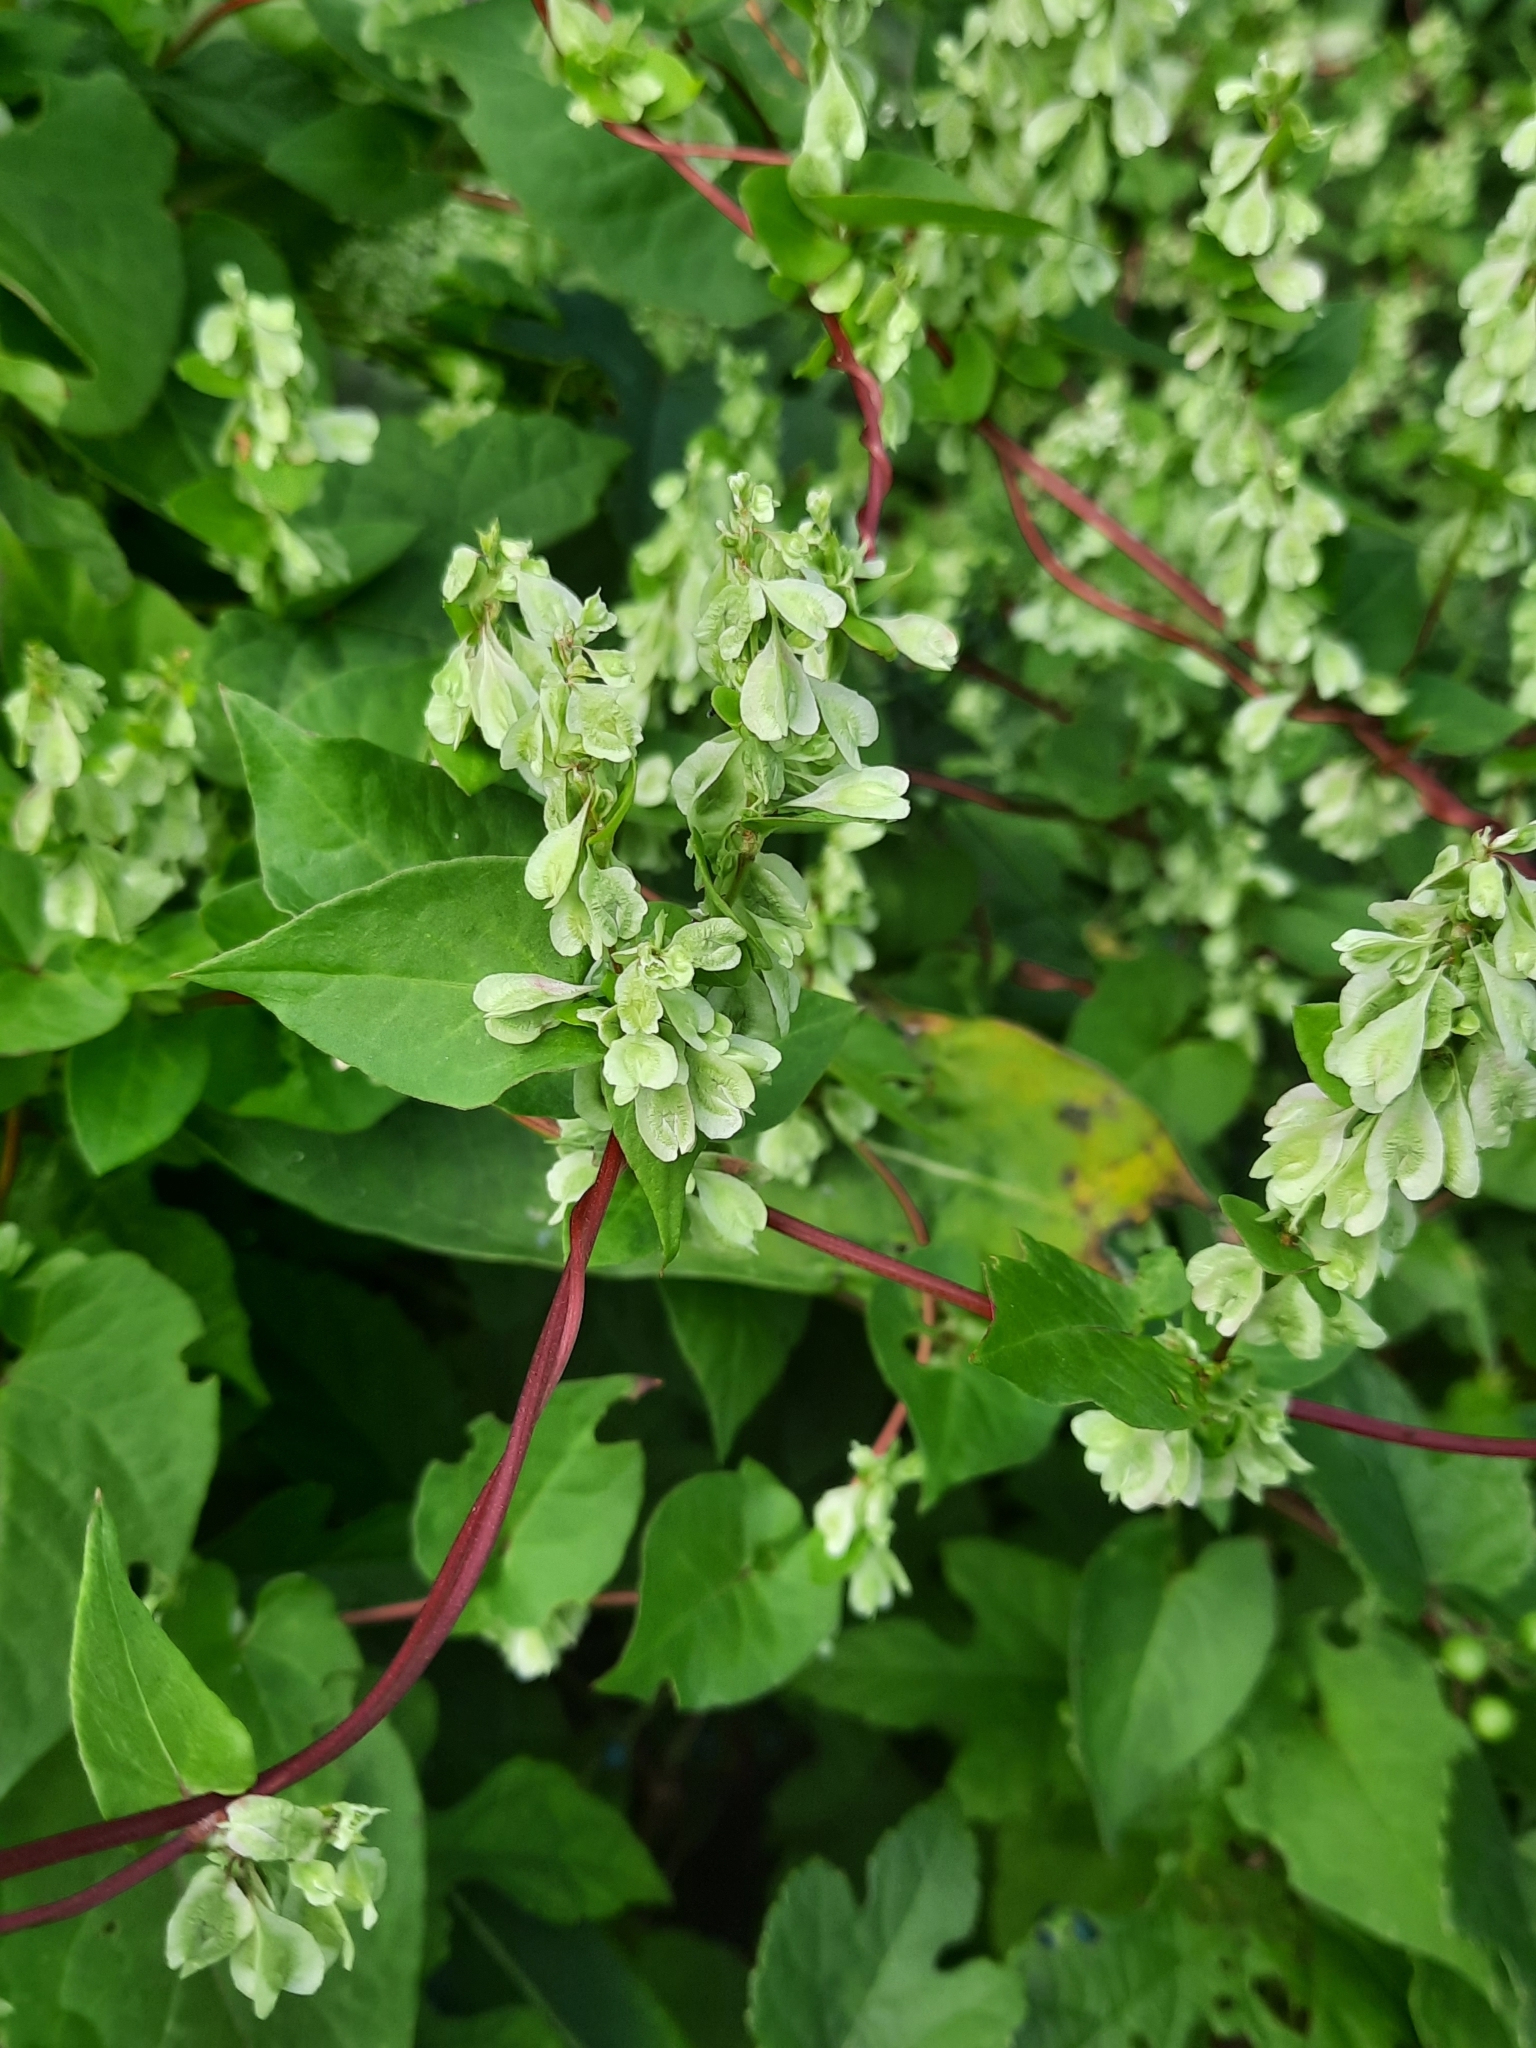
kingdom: Plantae
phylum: Tracheophyta
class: Magnoliopsida
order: Caryophyllales
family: Polygonaceae
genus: Fallopia
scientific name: Fallopia scandens
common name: Climbing false buckwheat
